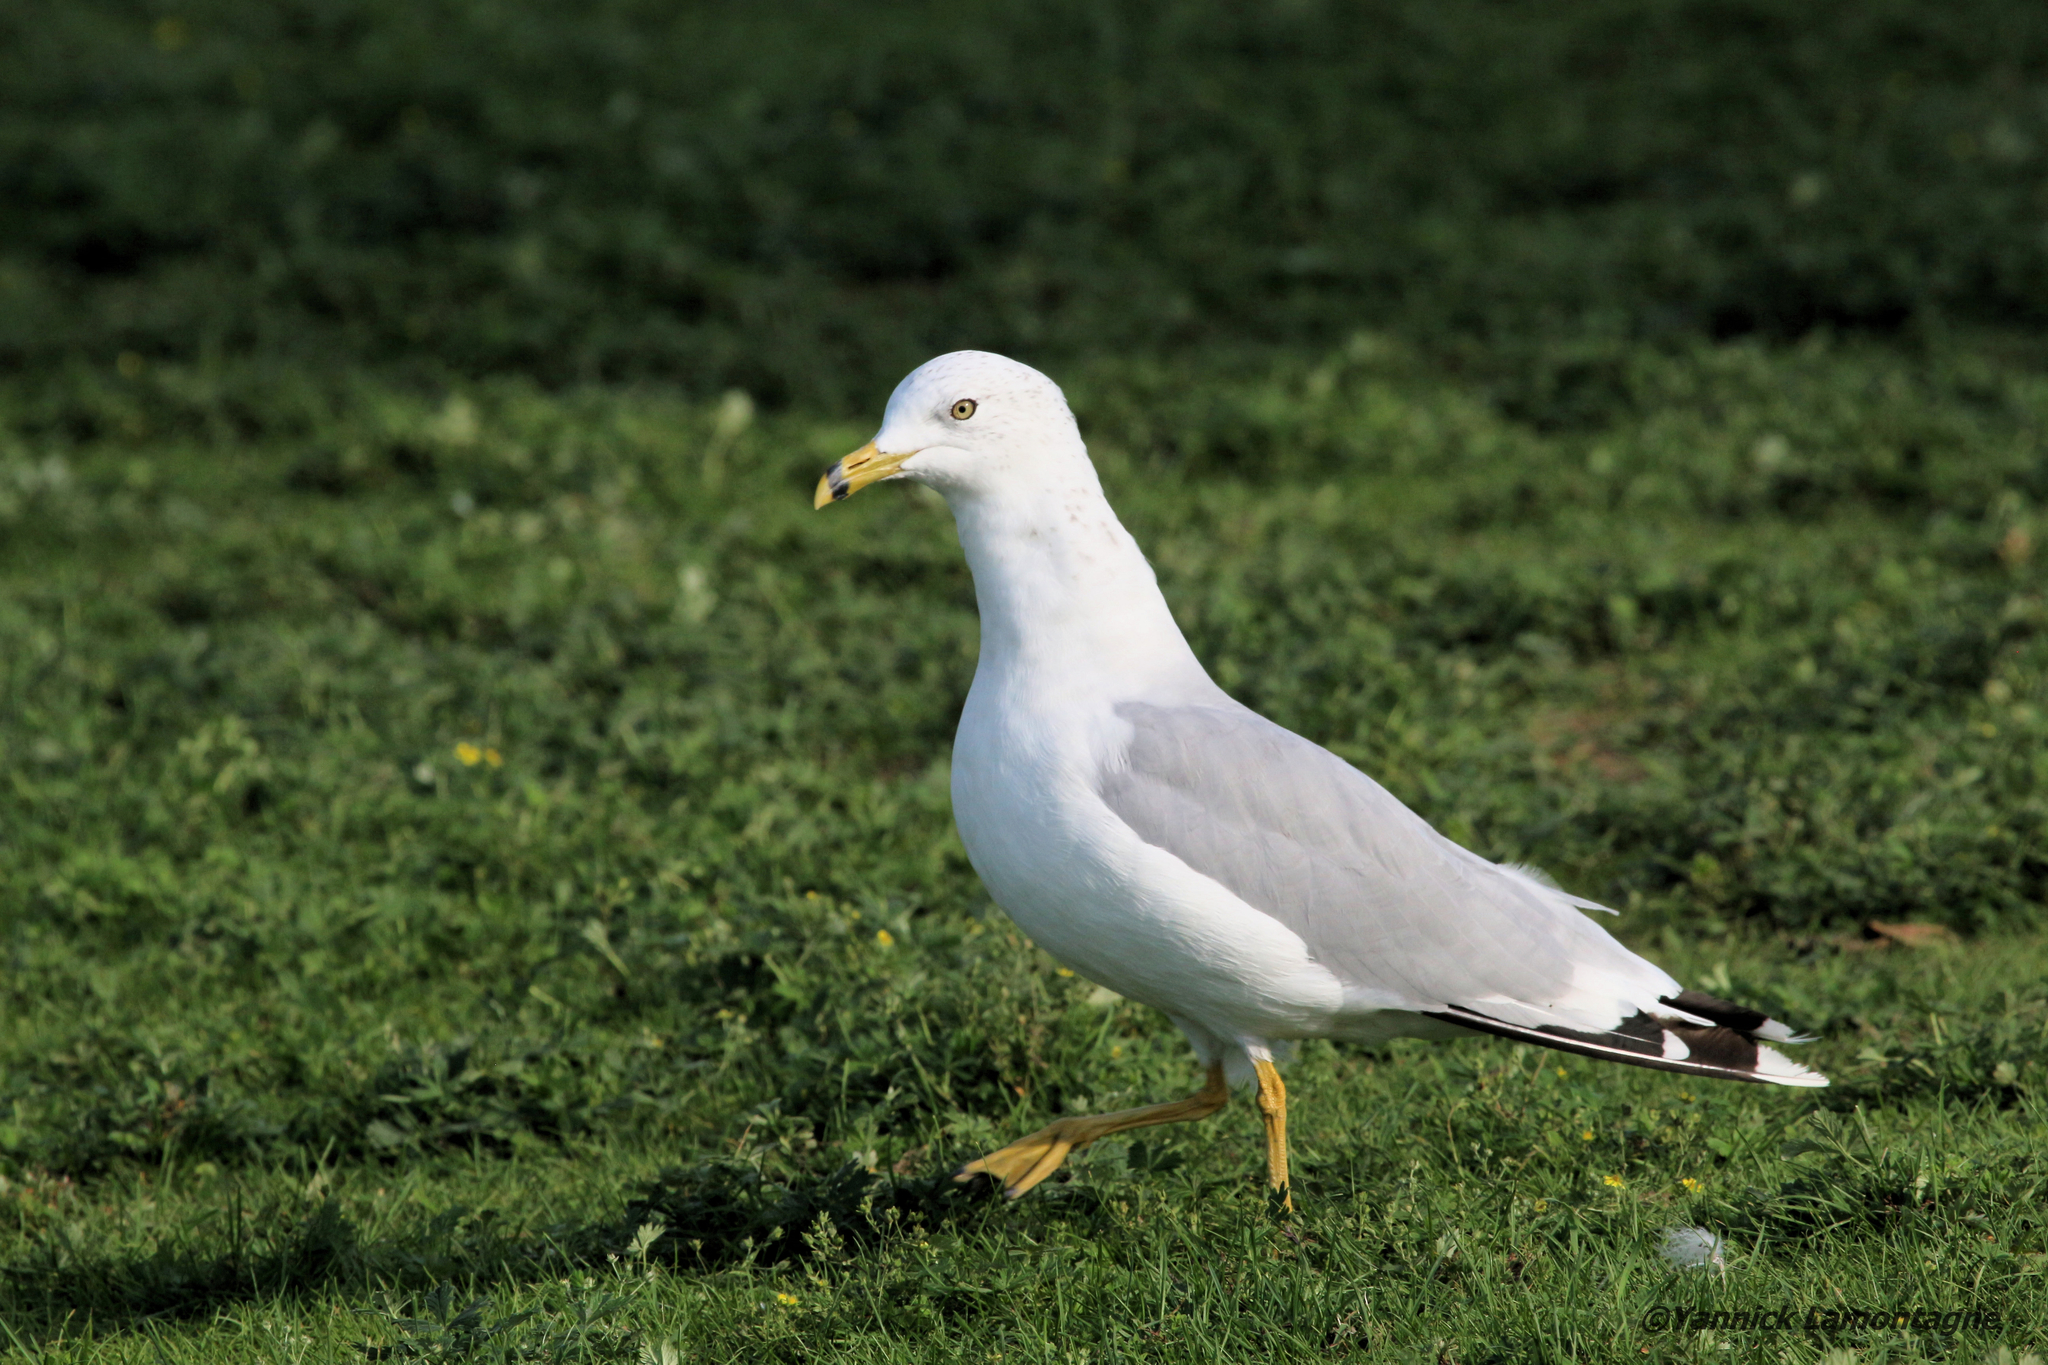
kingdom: Animalia
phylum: Chordata
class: Aves
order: Charadriiformes
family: Laridae
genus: Larus
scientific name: Larus delawarensis
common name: Ring-billed gull
